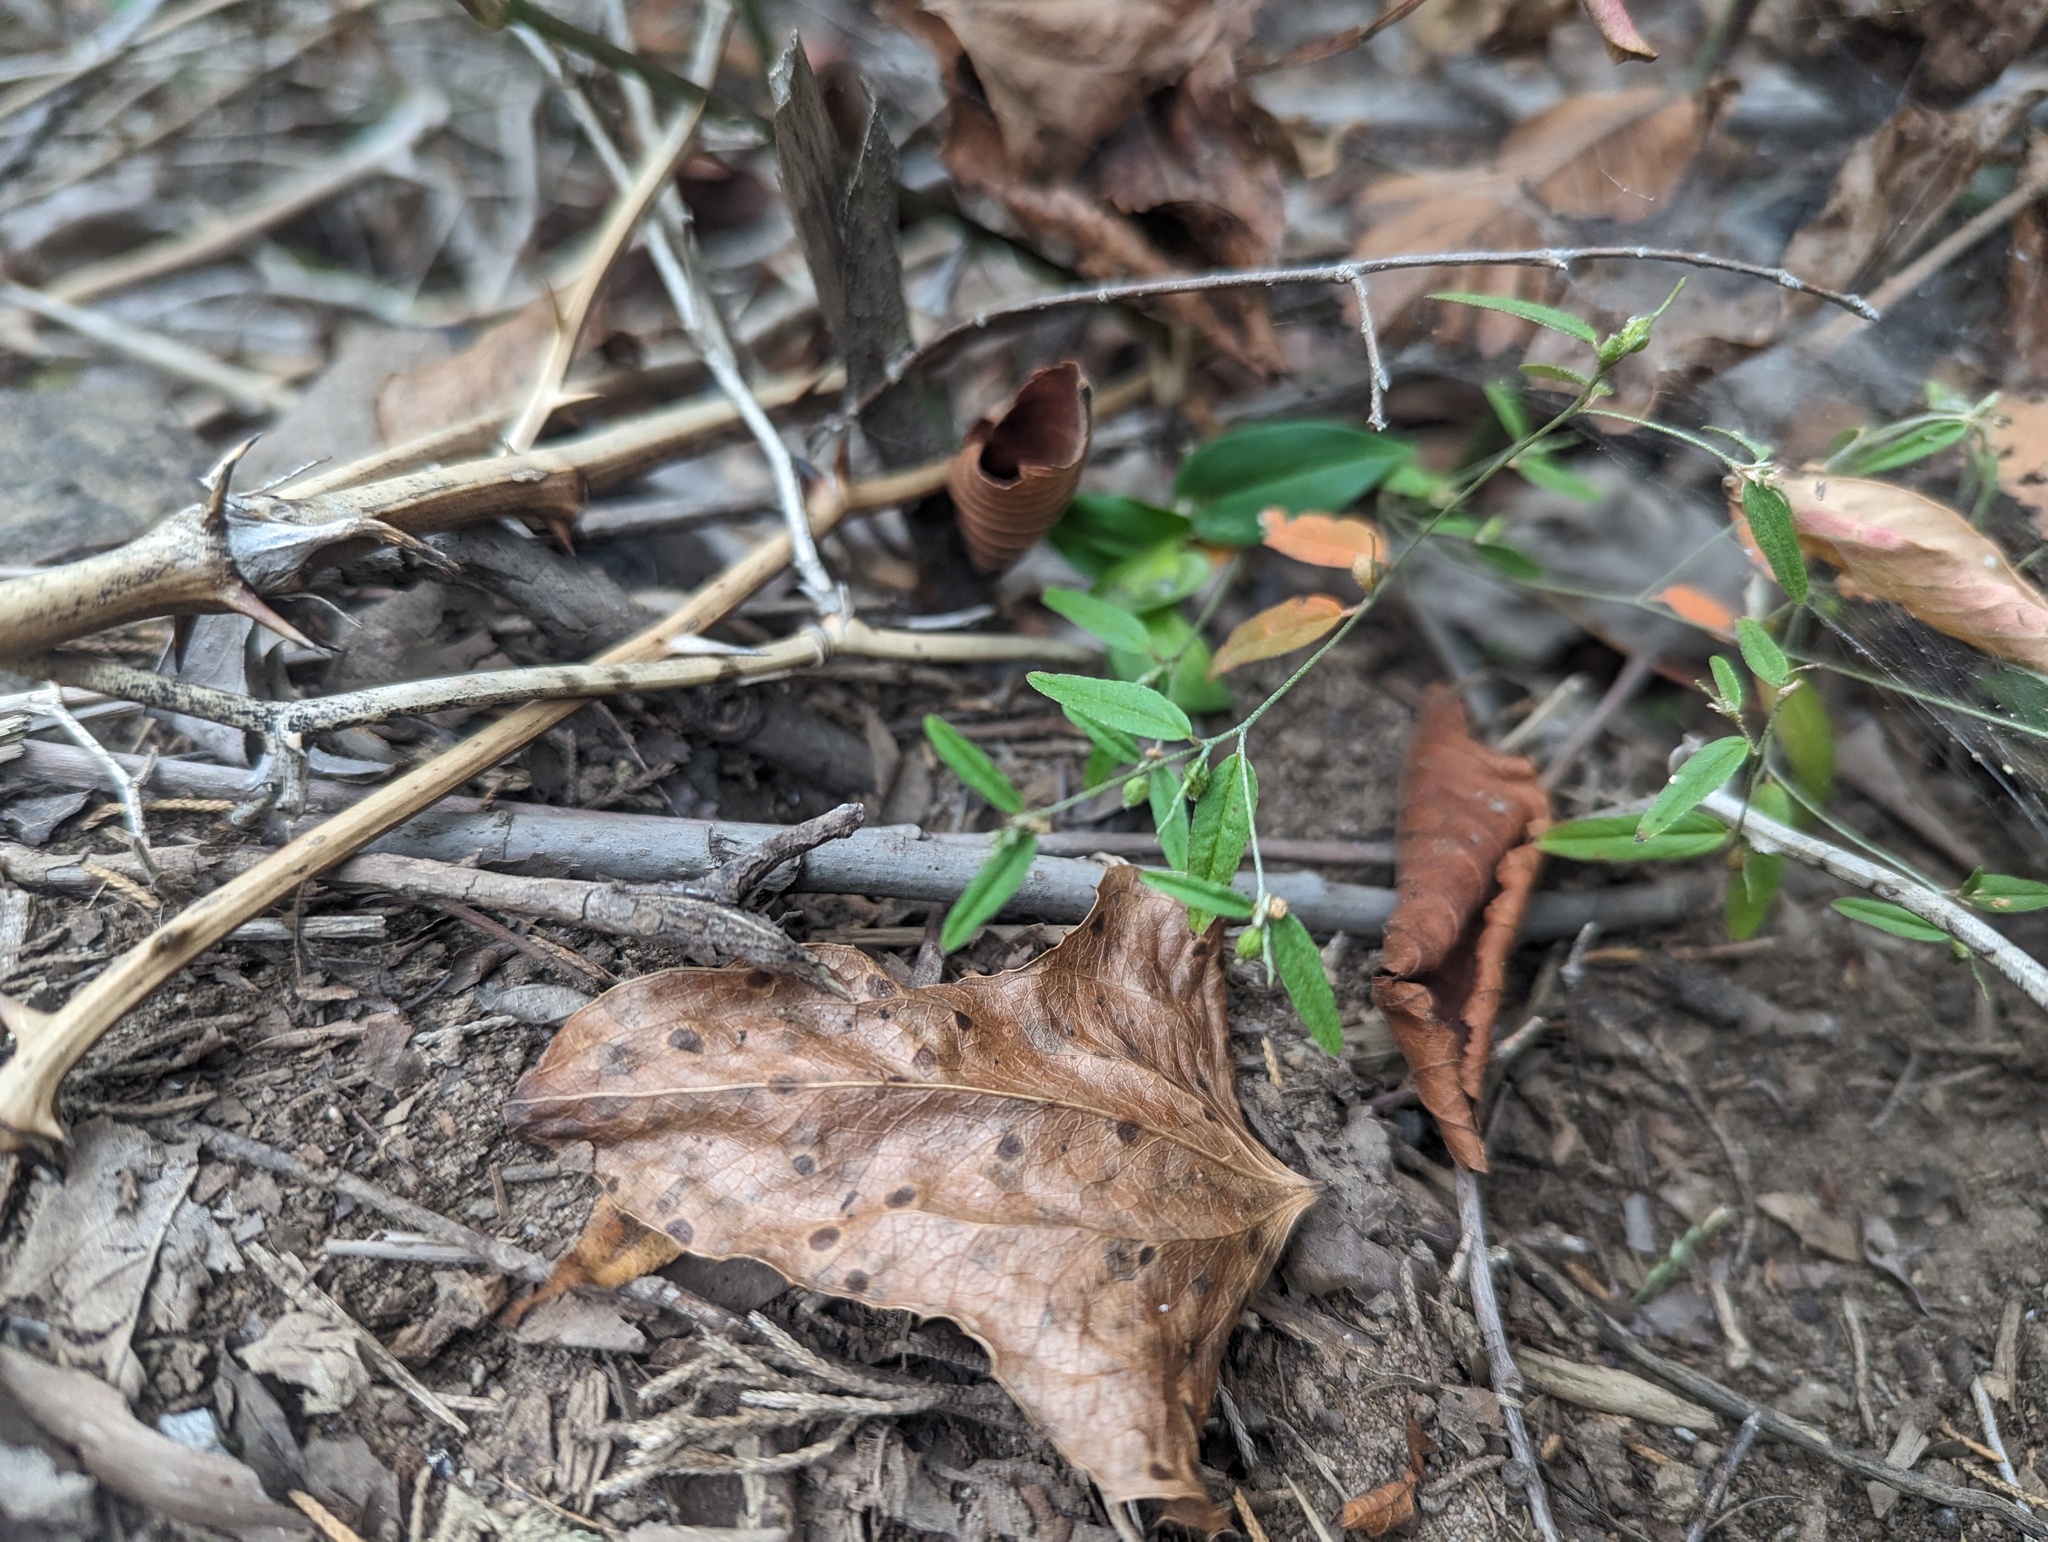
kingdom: Plantae
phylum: Tracheophyta
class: Magnoliopsida
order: Malpighiales
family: Euphorbiaceae
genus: Croton
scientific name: Croton michauxii
